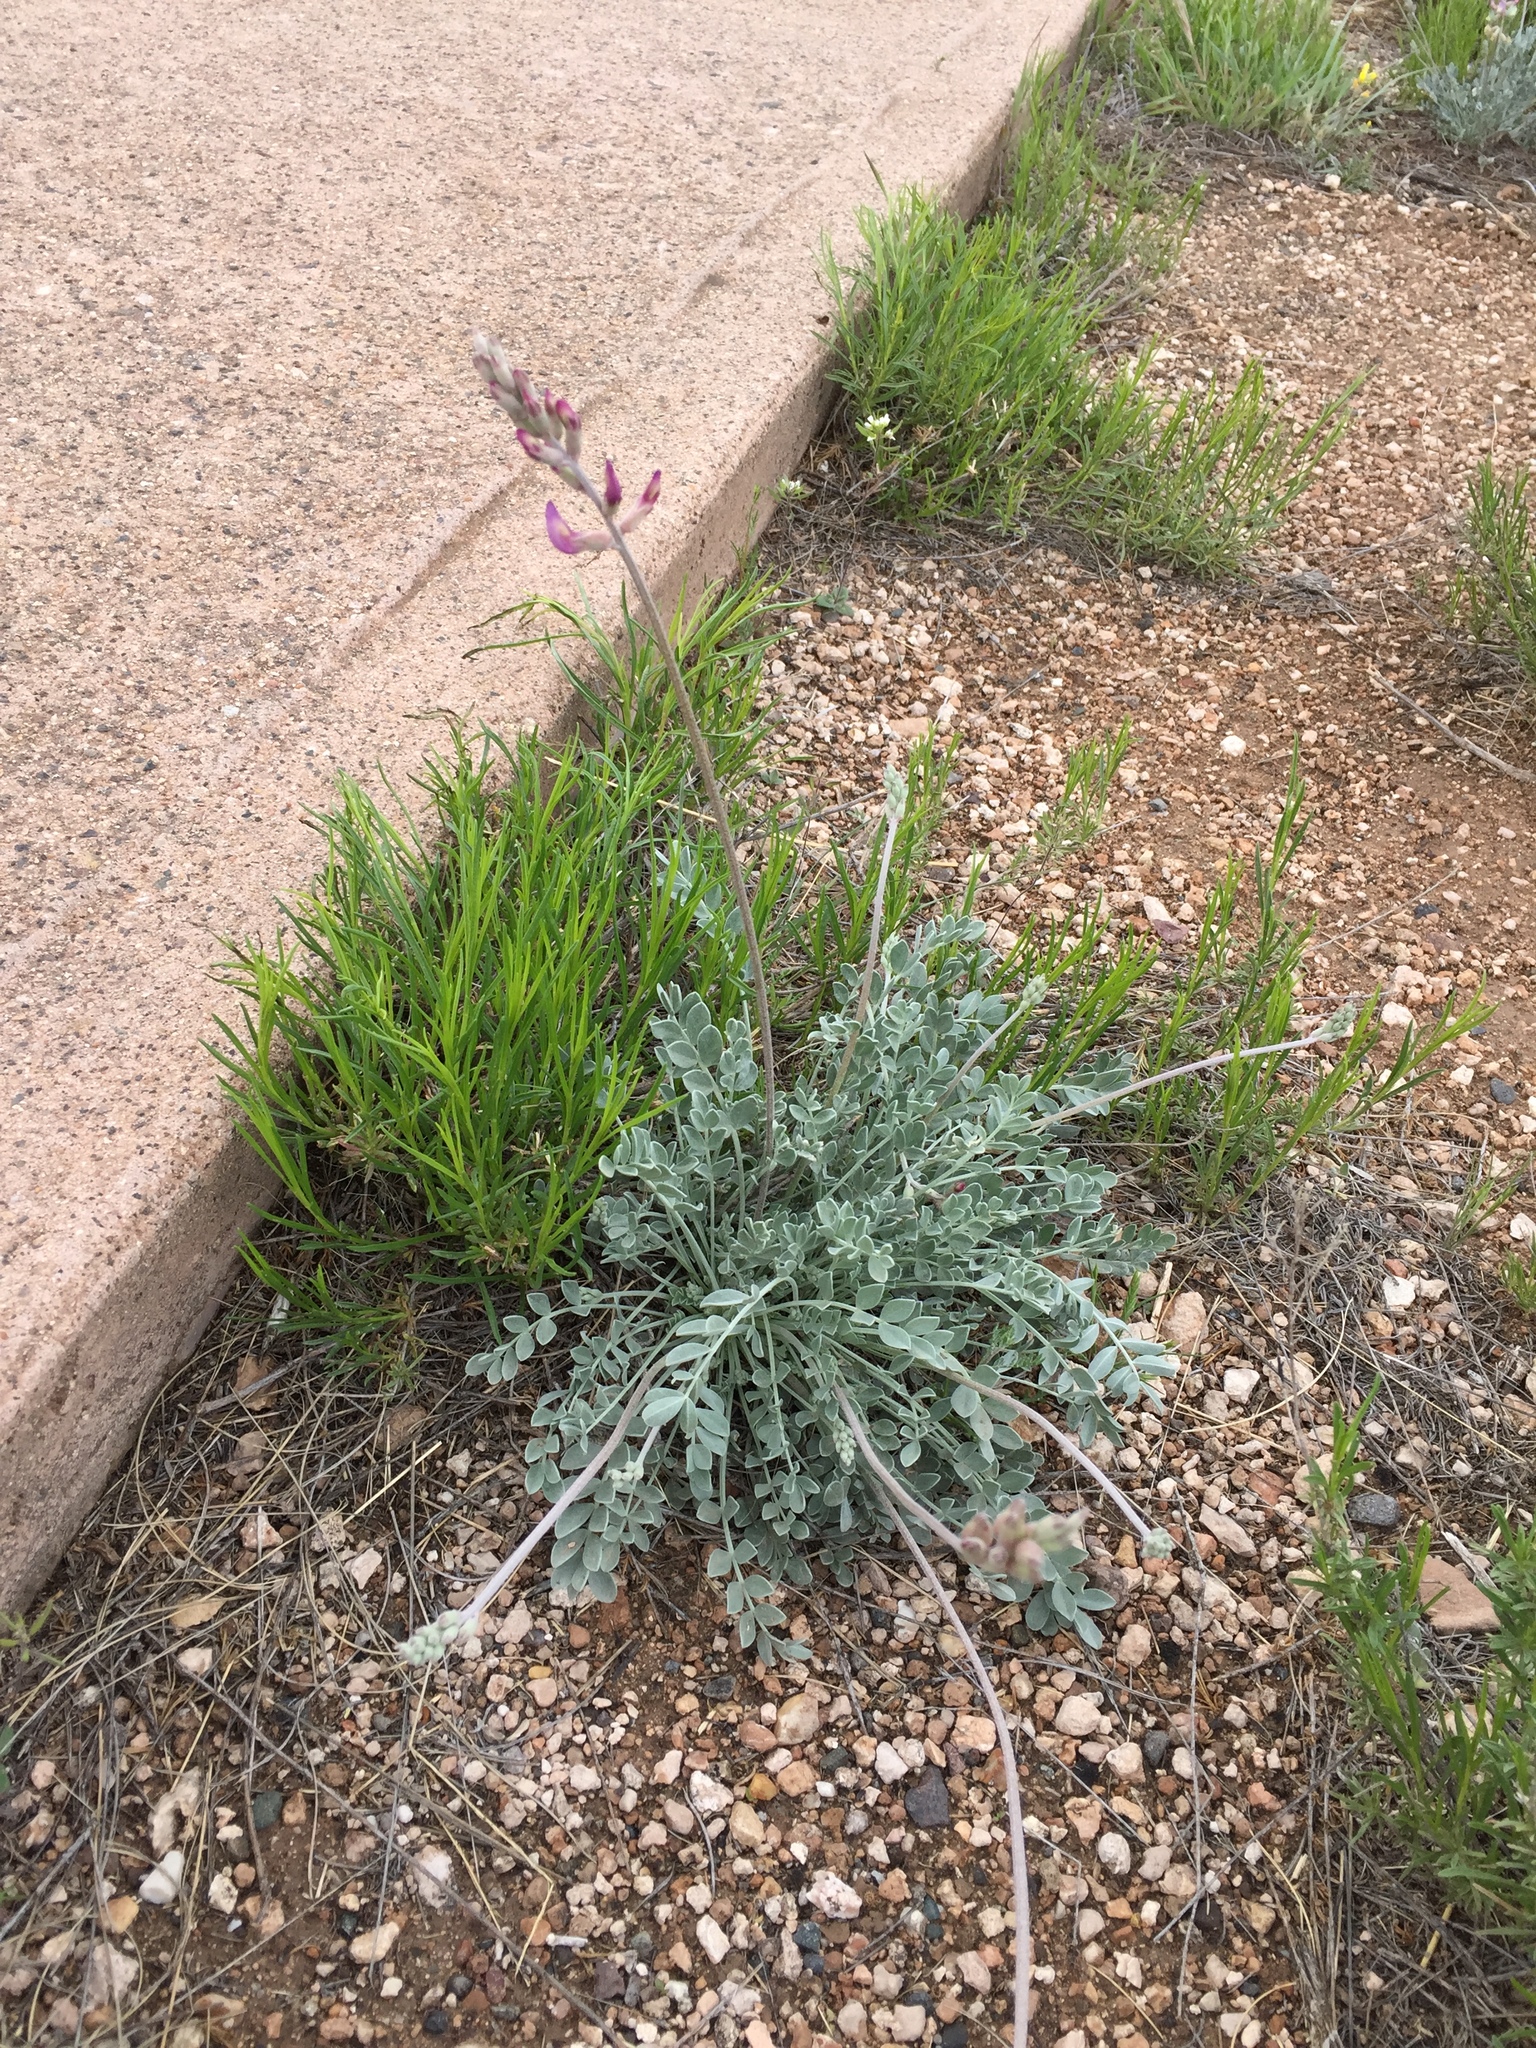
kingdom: Plantae
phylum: Tracheophyta
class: Magnoliopsida
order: Fabales
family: Fabaceae
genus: Astragalus
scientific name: Astragalus calycosus
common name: King's milkvetch
